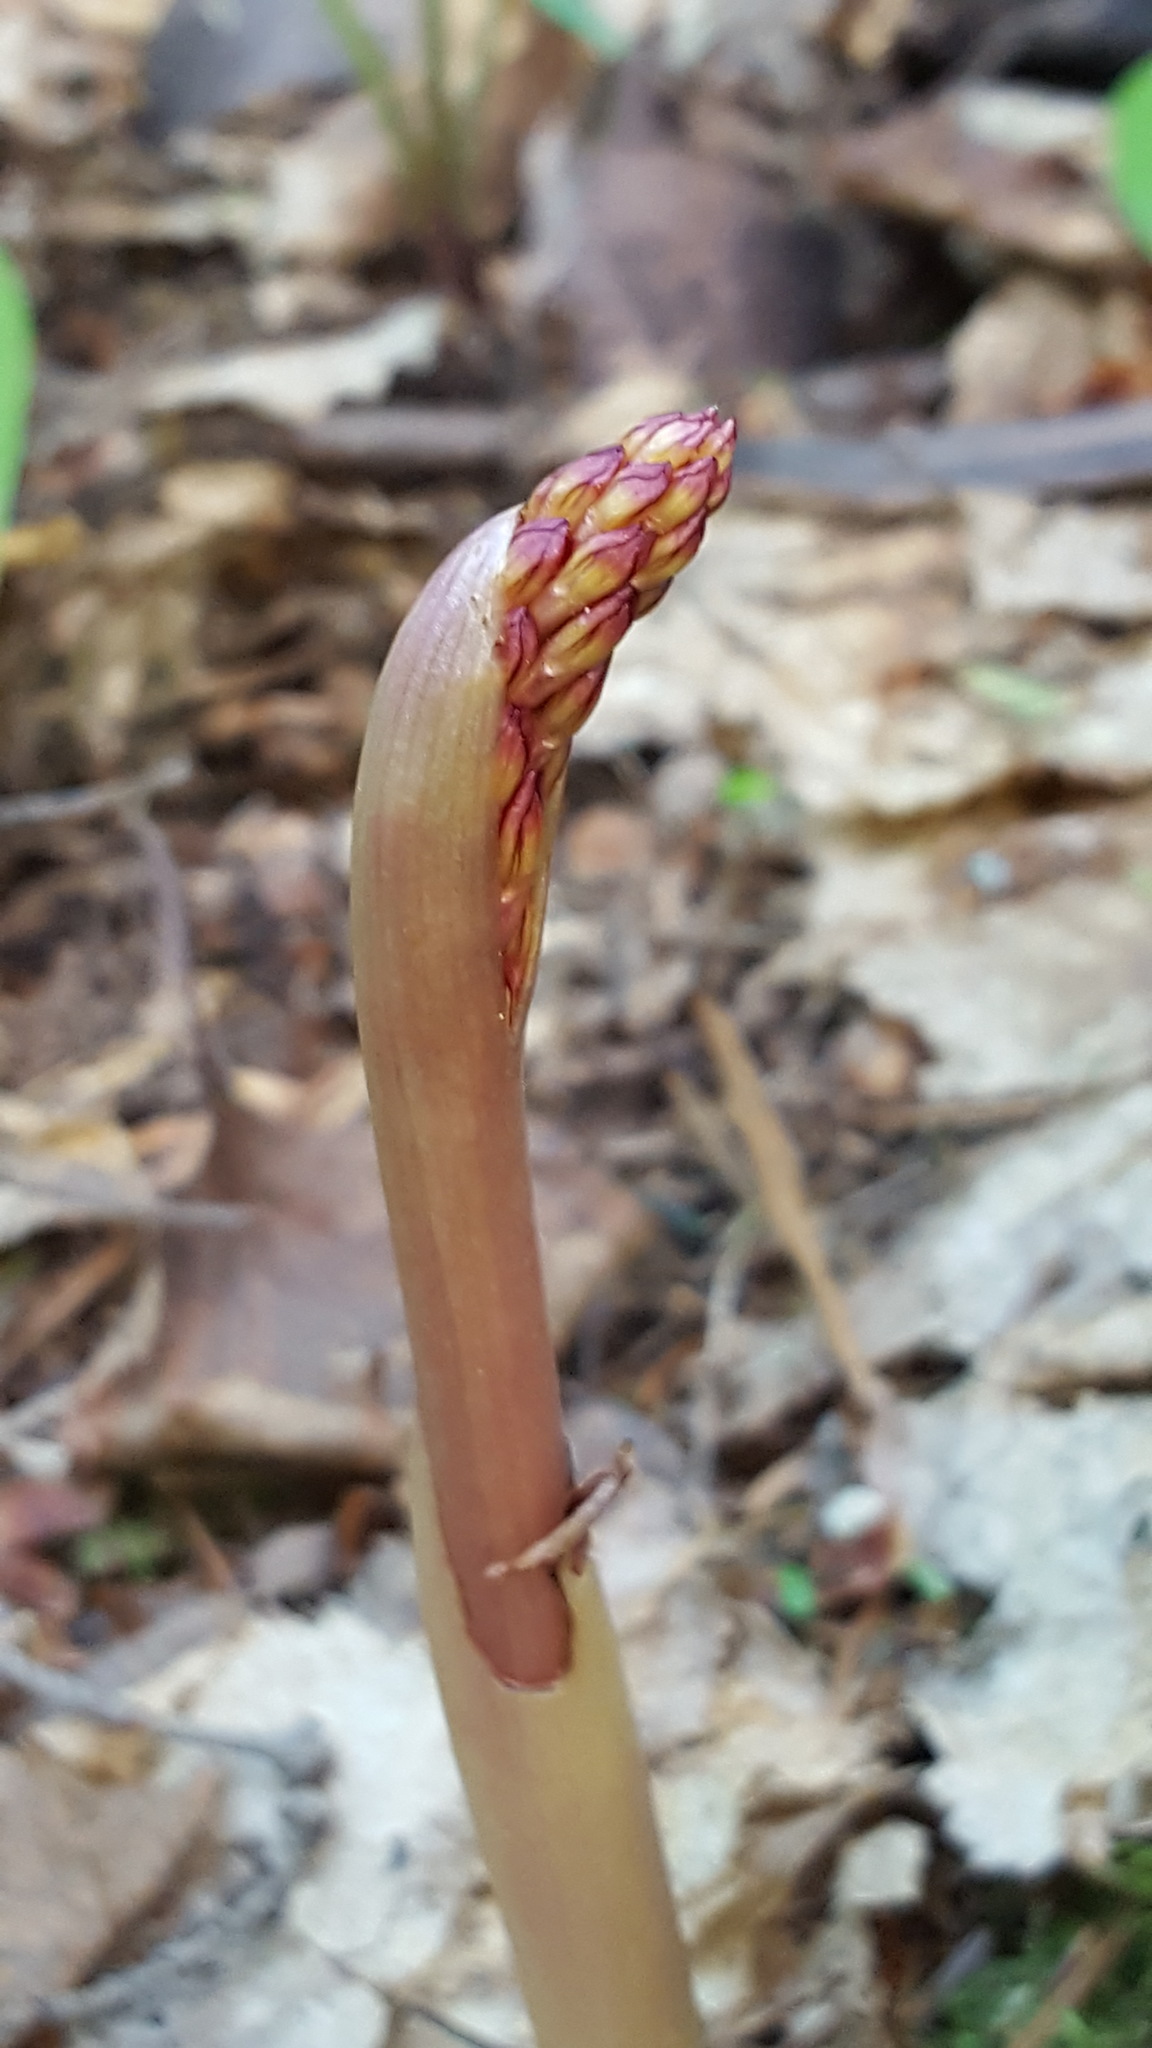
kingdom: Plantae
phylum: Tracheophyta
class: Liliopsida
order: Asparagales
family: Orchidaceae
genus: Corallorhiza
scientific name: Corallorhiza maculata
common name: Spotted coralroot
